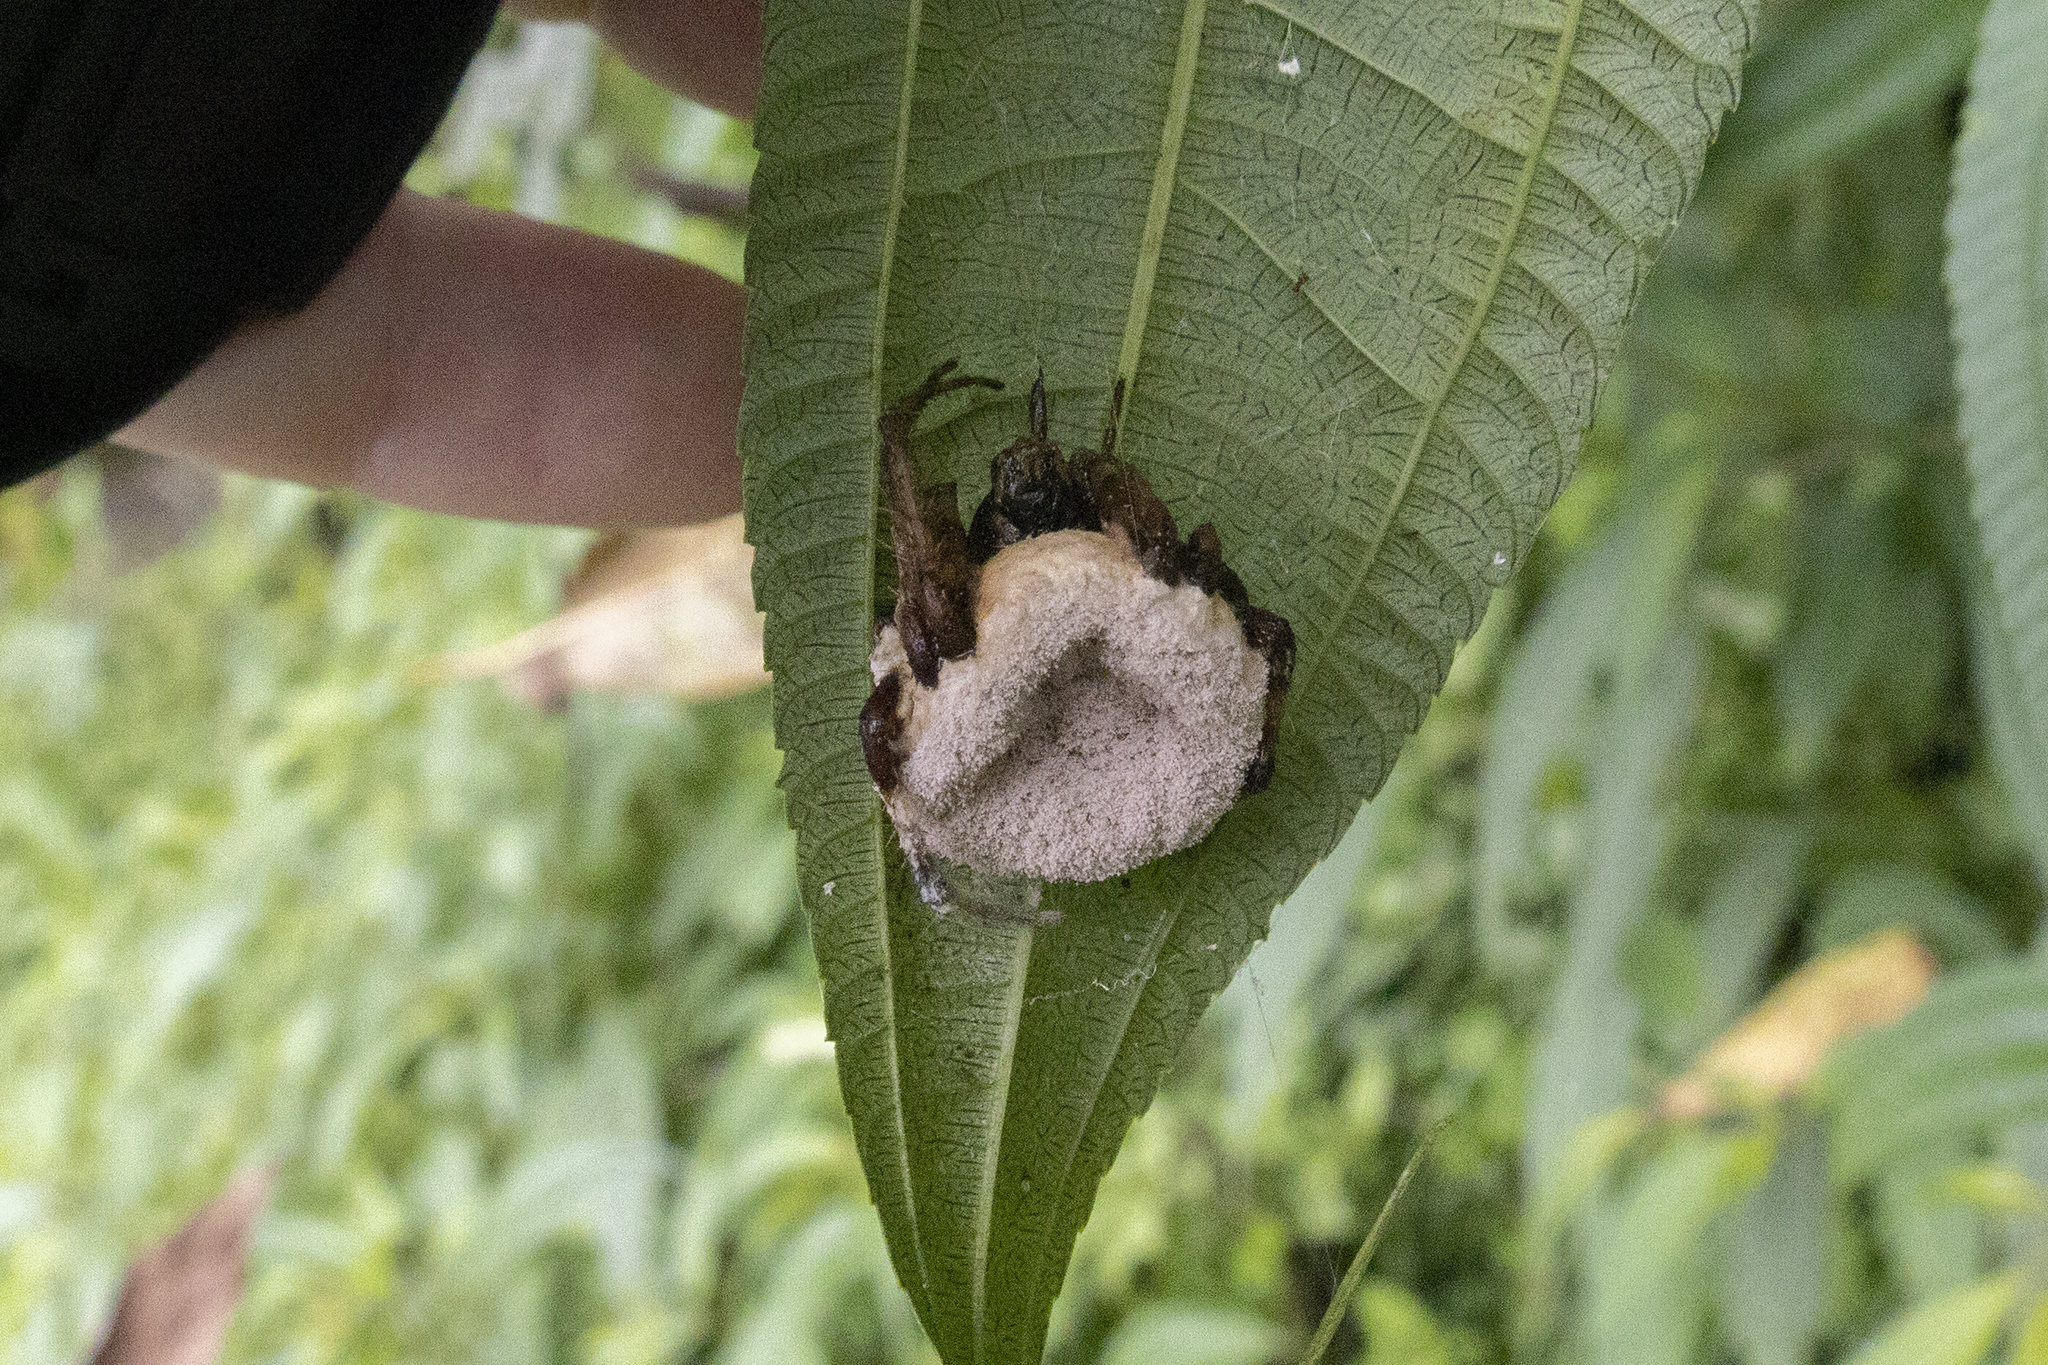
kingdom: Fungi
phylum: Ascomycota
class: Sordariomycetes
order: Hypocreales
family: Ophiocordycipitaceae
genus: Purpureocillium
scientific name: Purpureocillium atypicola
